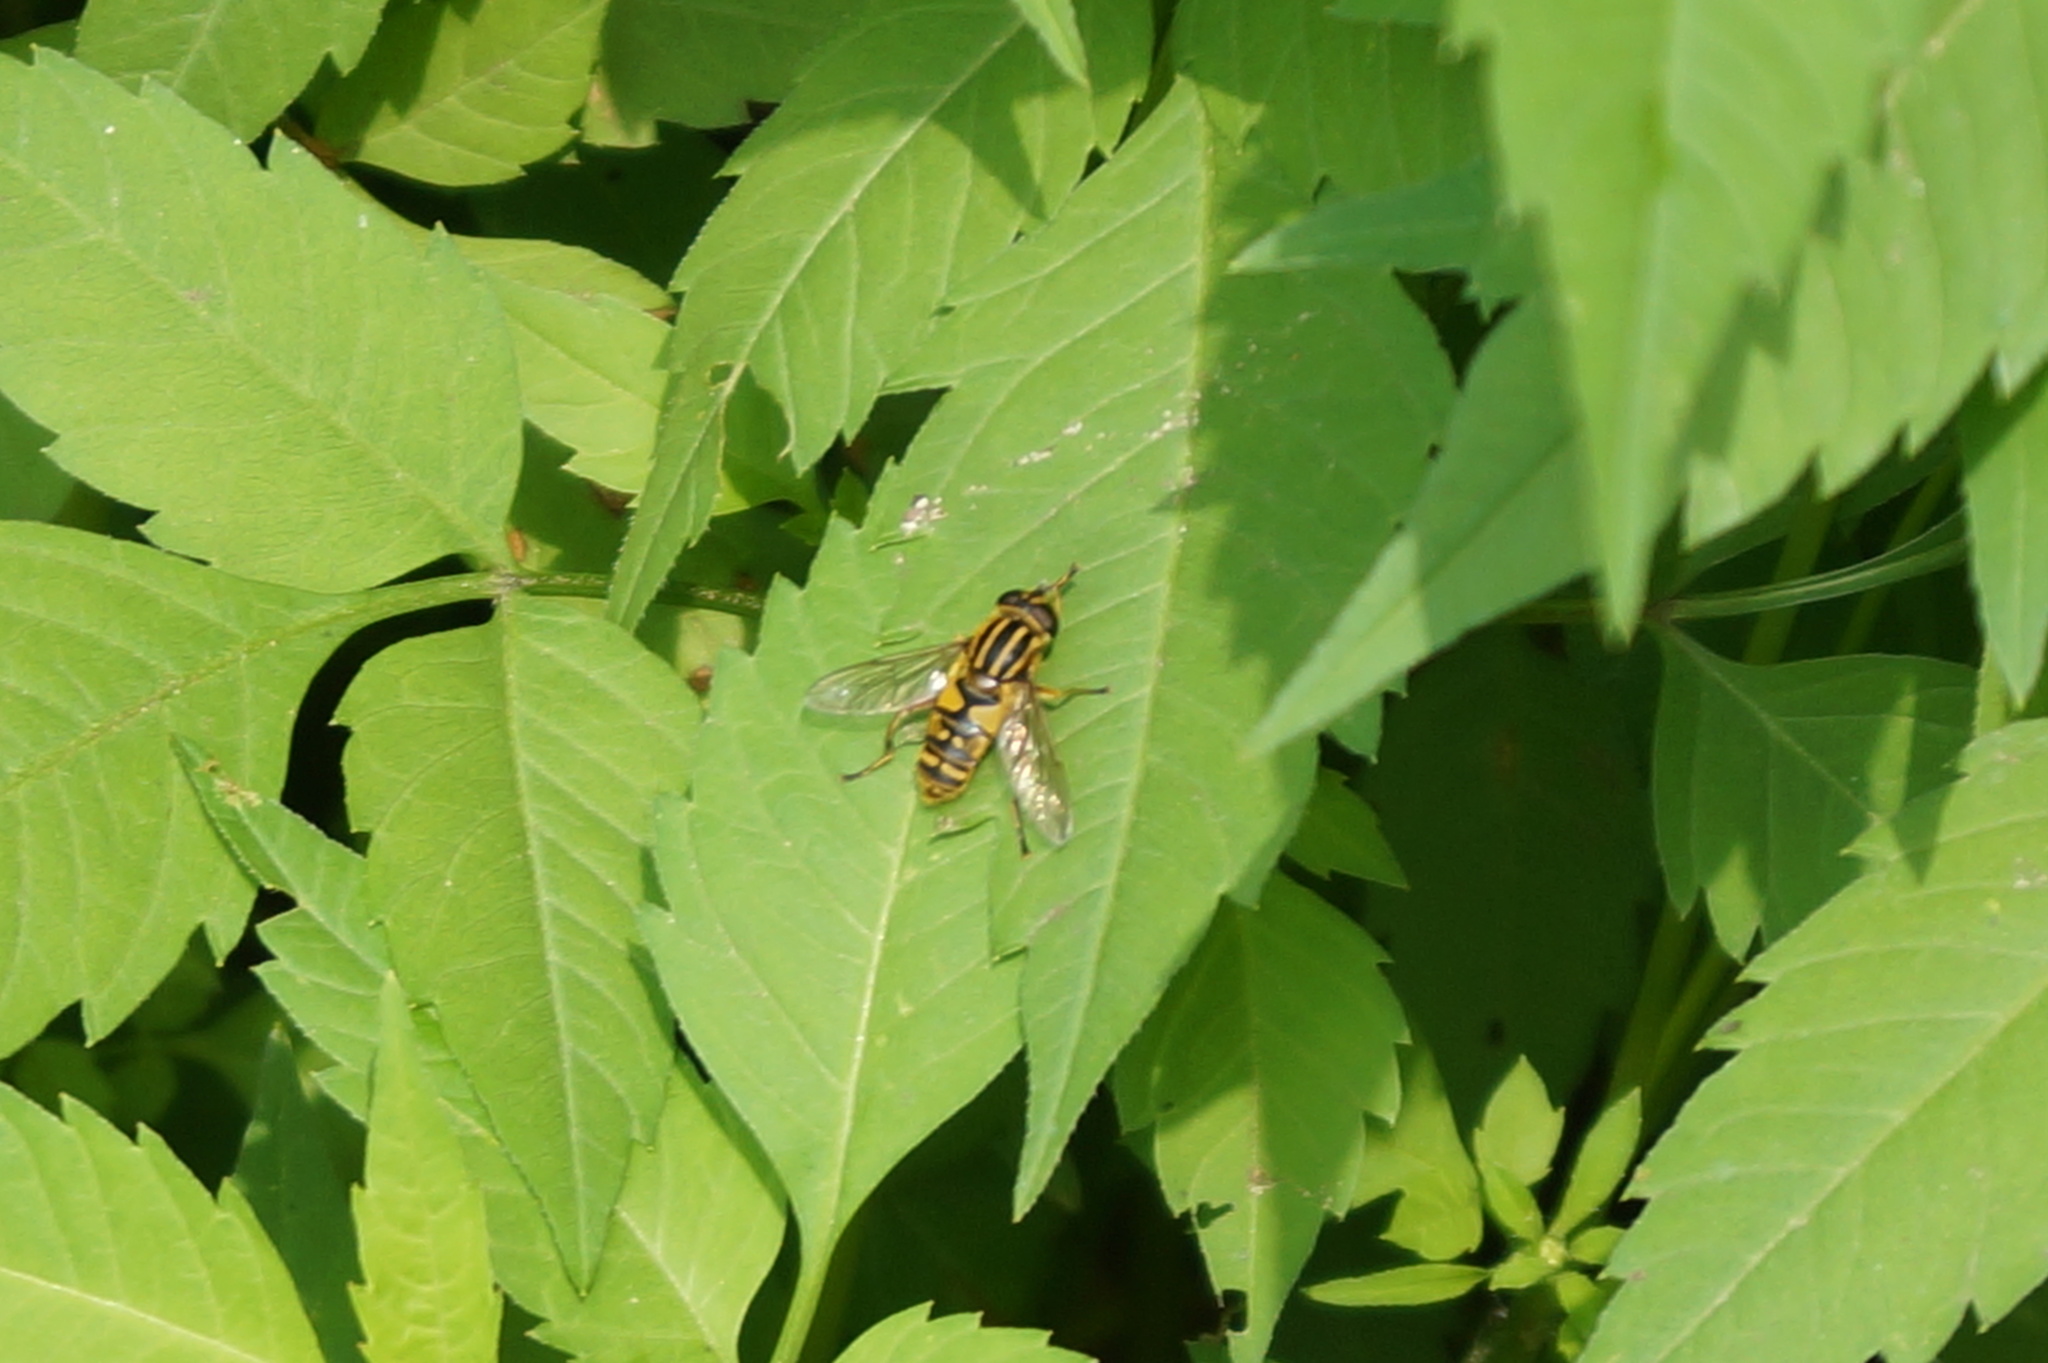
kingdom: Animalia
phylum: Arthropoda
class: Insecta
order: Diptera
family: Syrphidae
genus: Helophilus
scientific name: Helophilus pendulus
